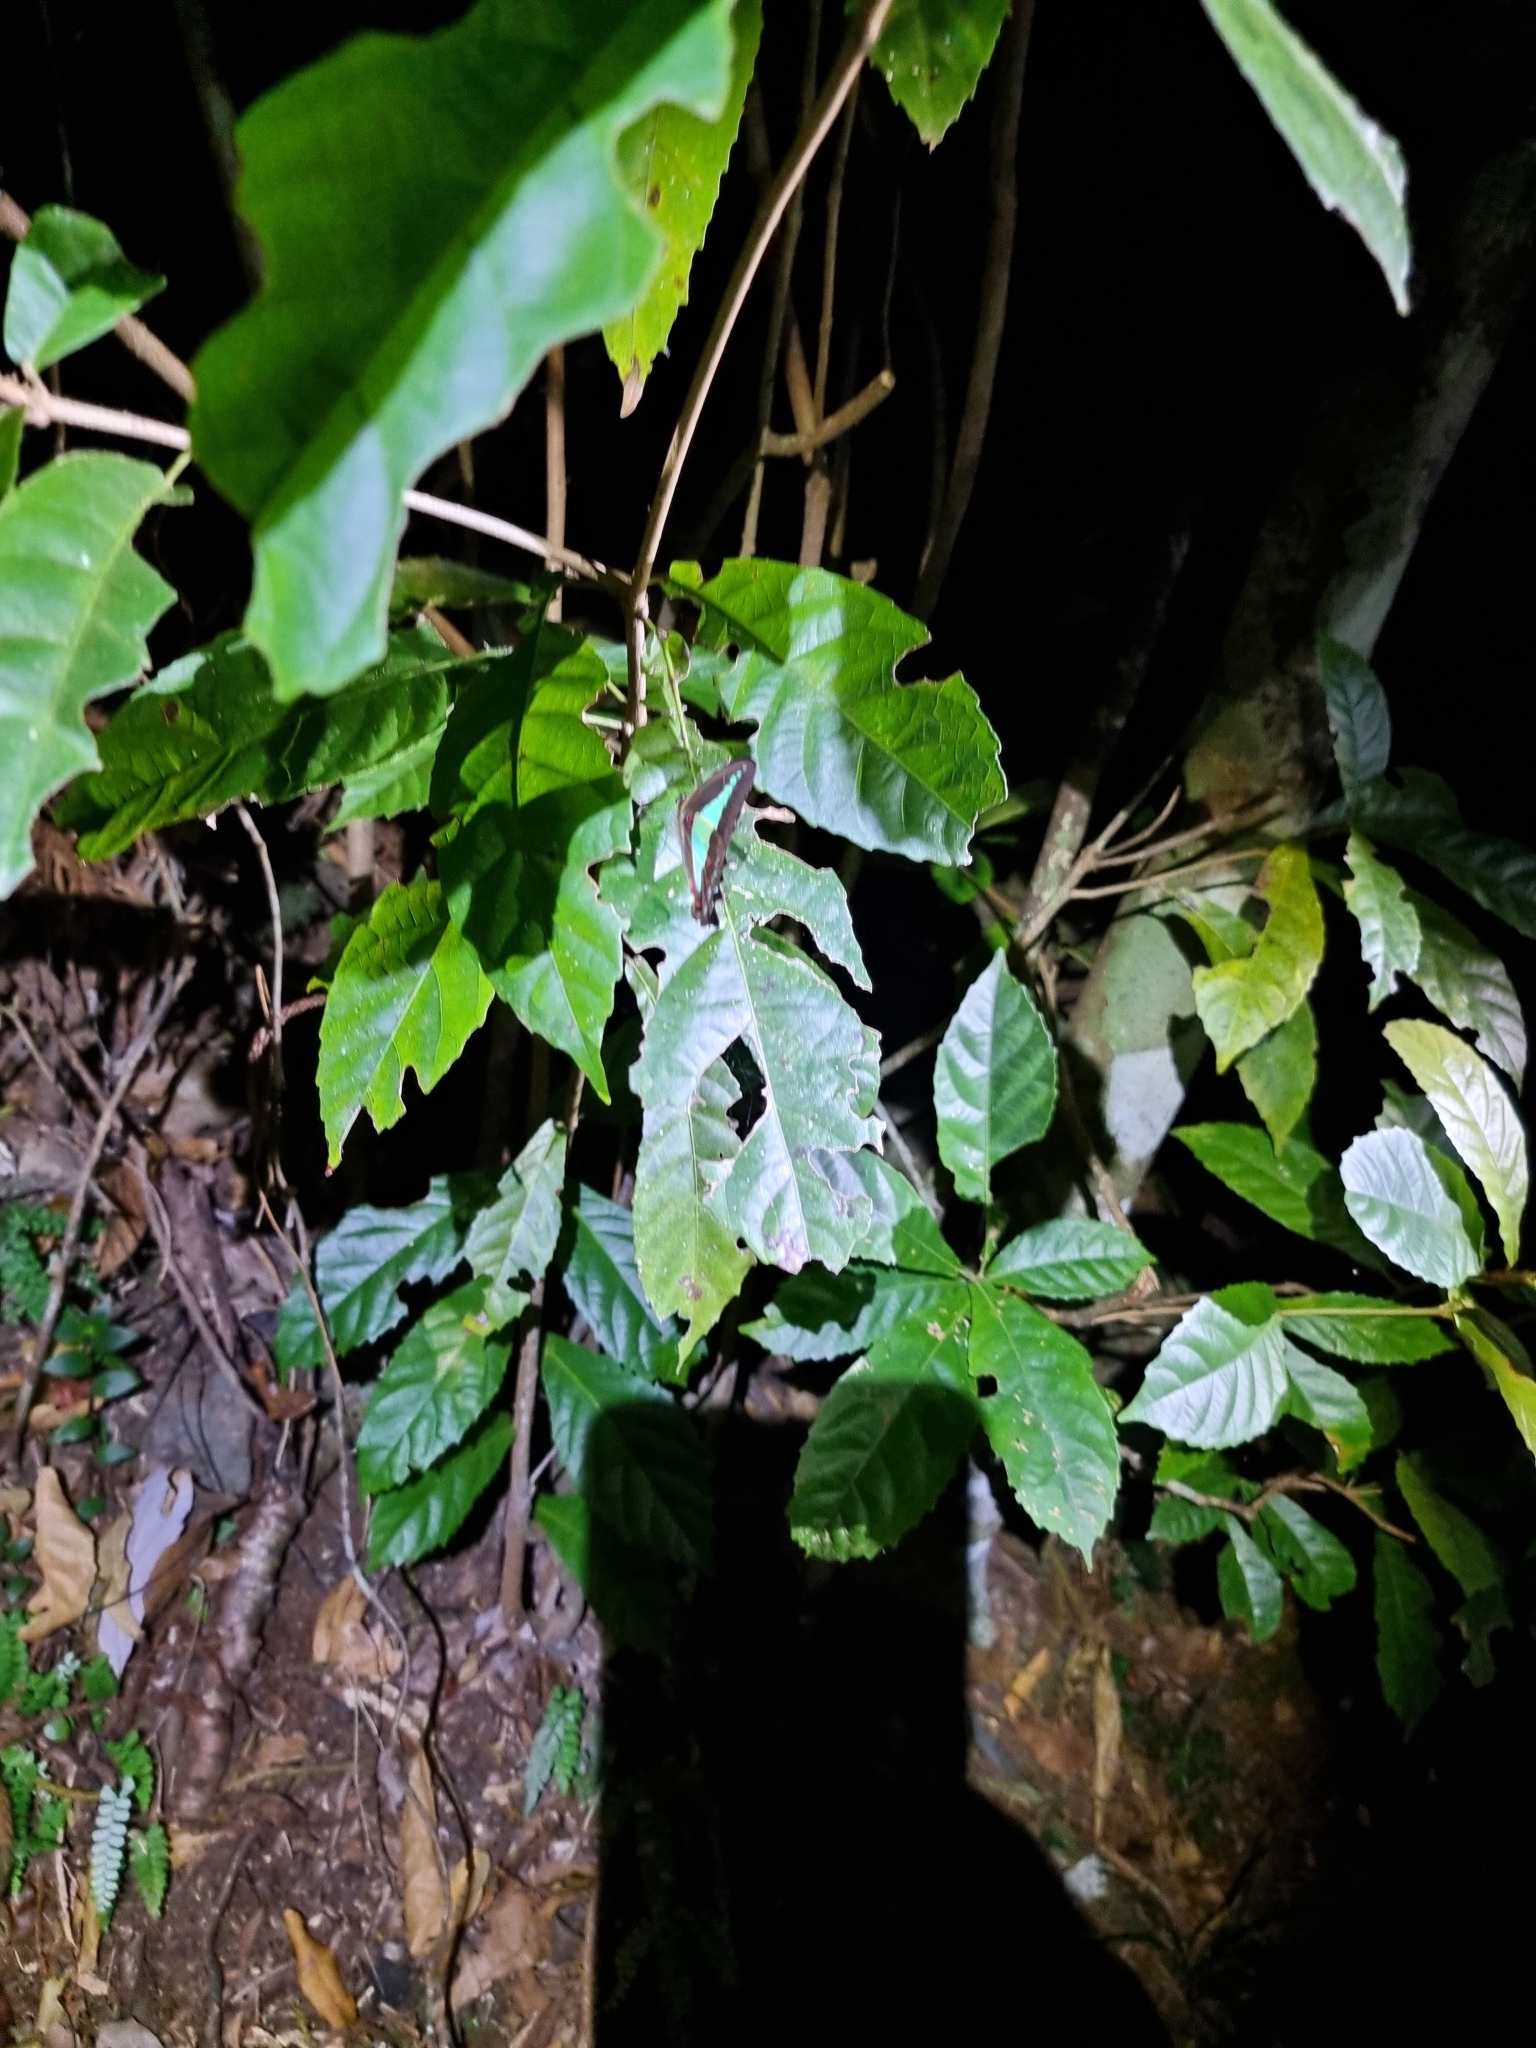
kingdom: Animalia
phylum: Arthropoda
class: Insecta
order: Lepidoptera
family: Papilionidae
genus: Graphium
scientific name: Graphium
